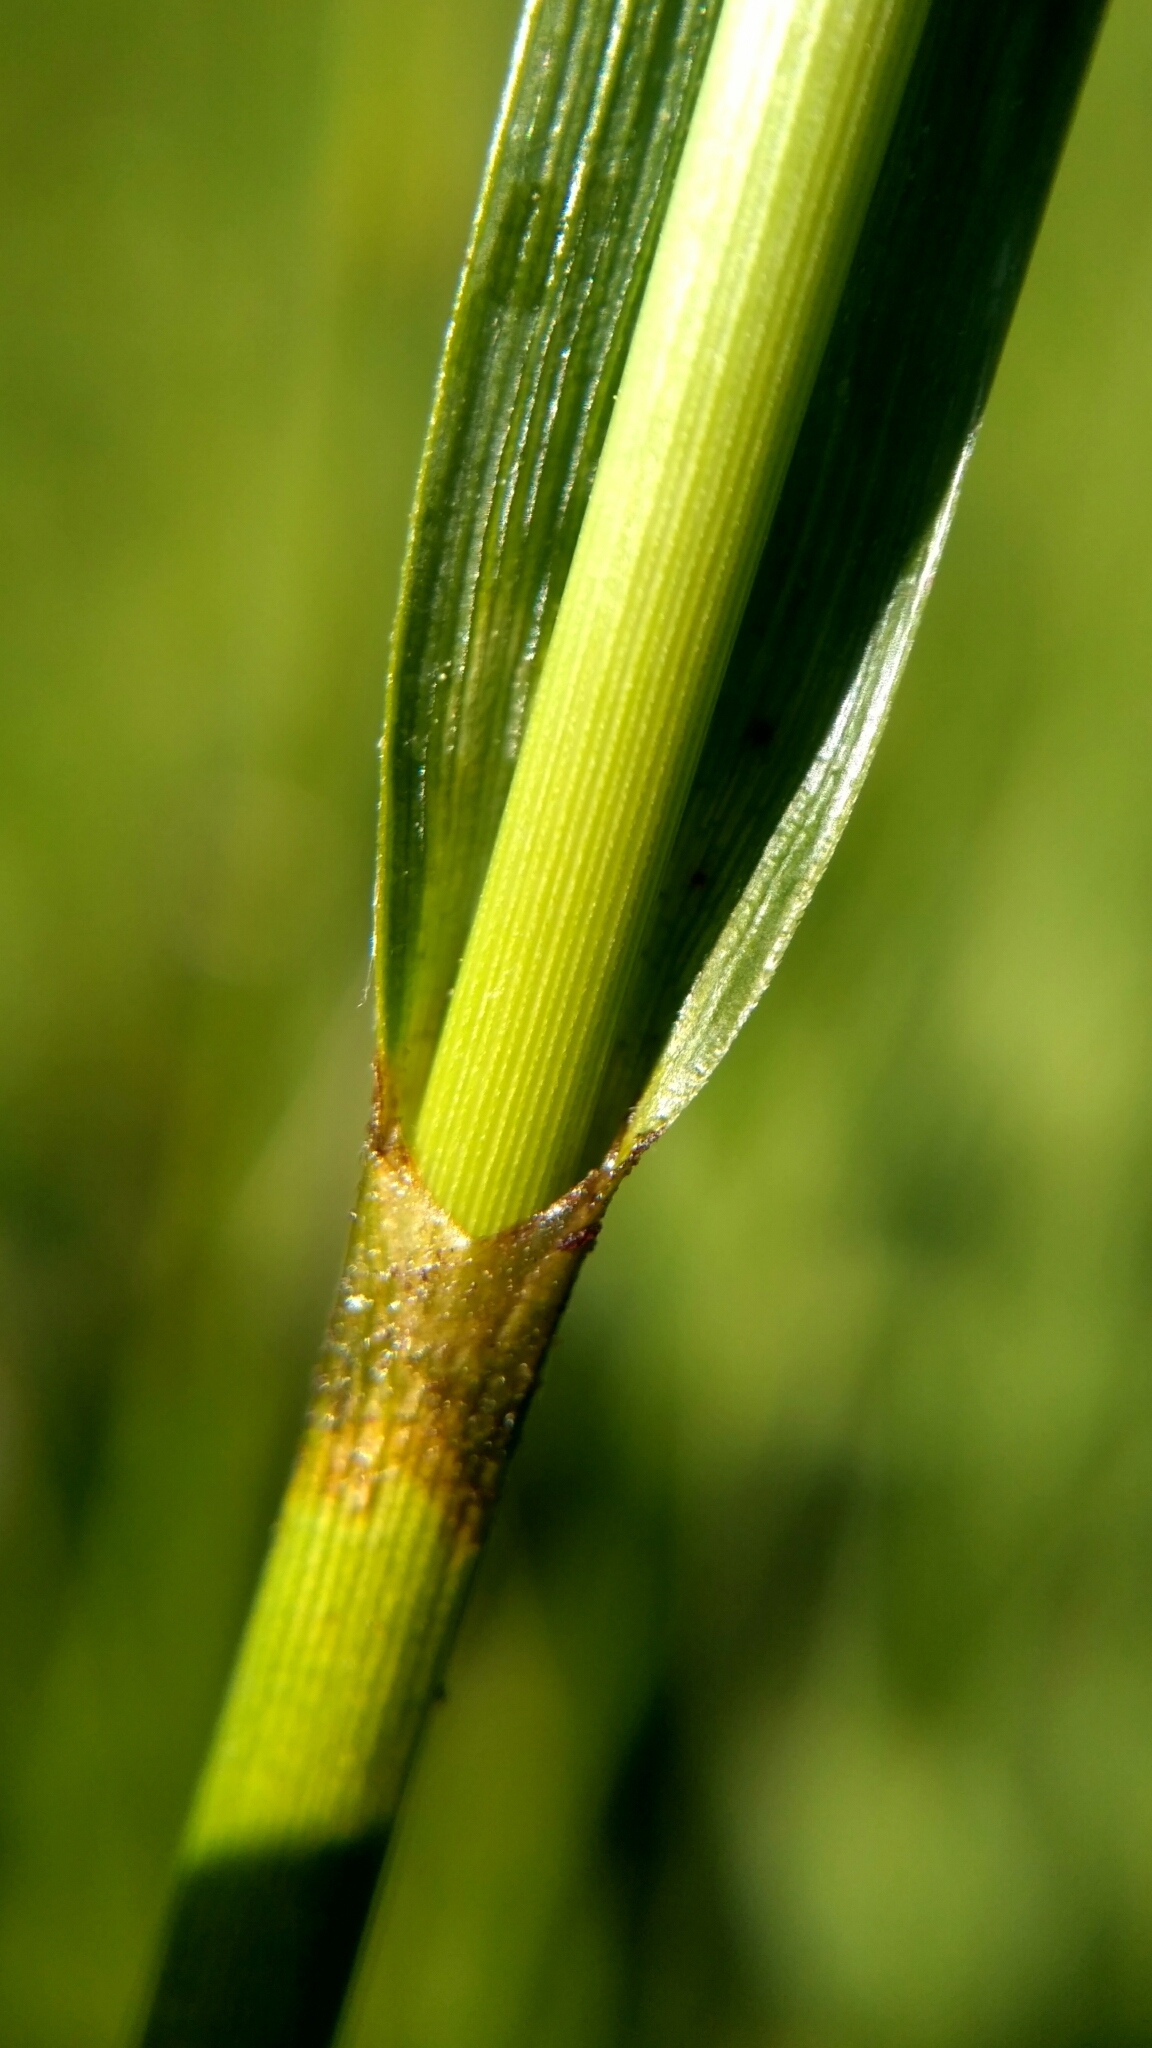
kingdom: Plantae
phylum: Tracheophyta
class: Liliopsida
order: Poales
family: Cyperaceae
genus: Eriophorum
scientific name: Eriophorum latifolium
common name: Broad-leaved cottongrass
